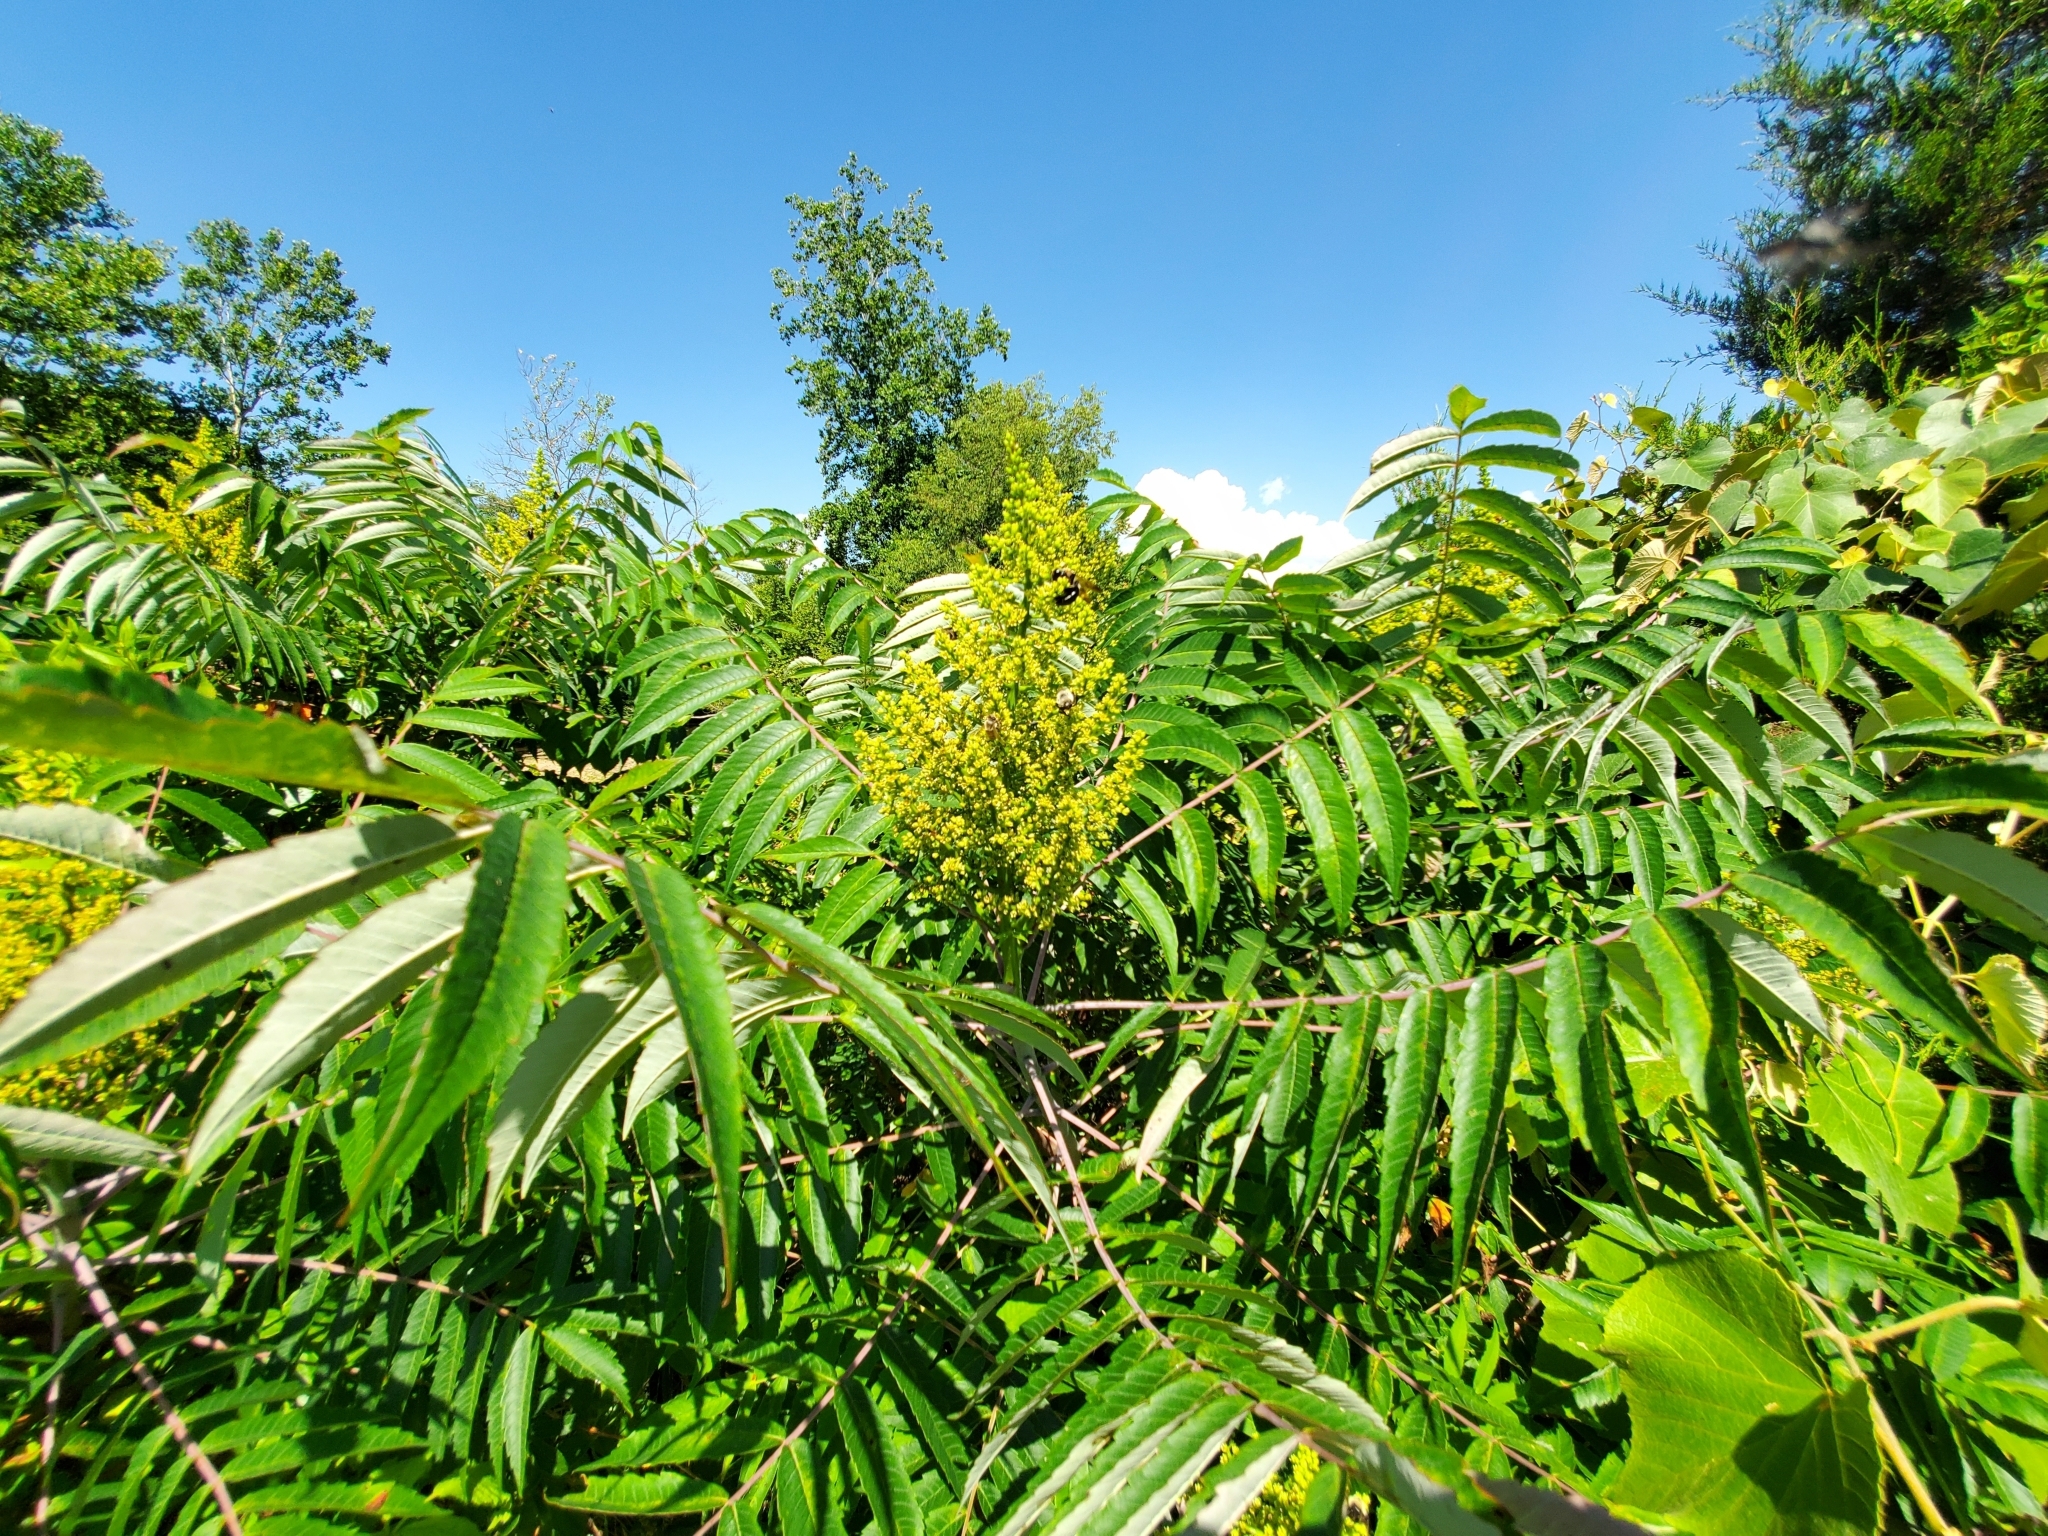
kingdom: Plantae
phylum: Tracheophyta
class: Magnoliopsida
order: Sapindales
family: Anacardiaceae
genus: Rhus
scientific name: Rhus glabra
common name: Scarlet sumac
